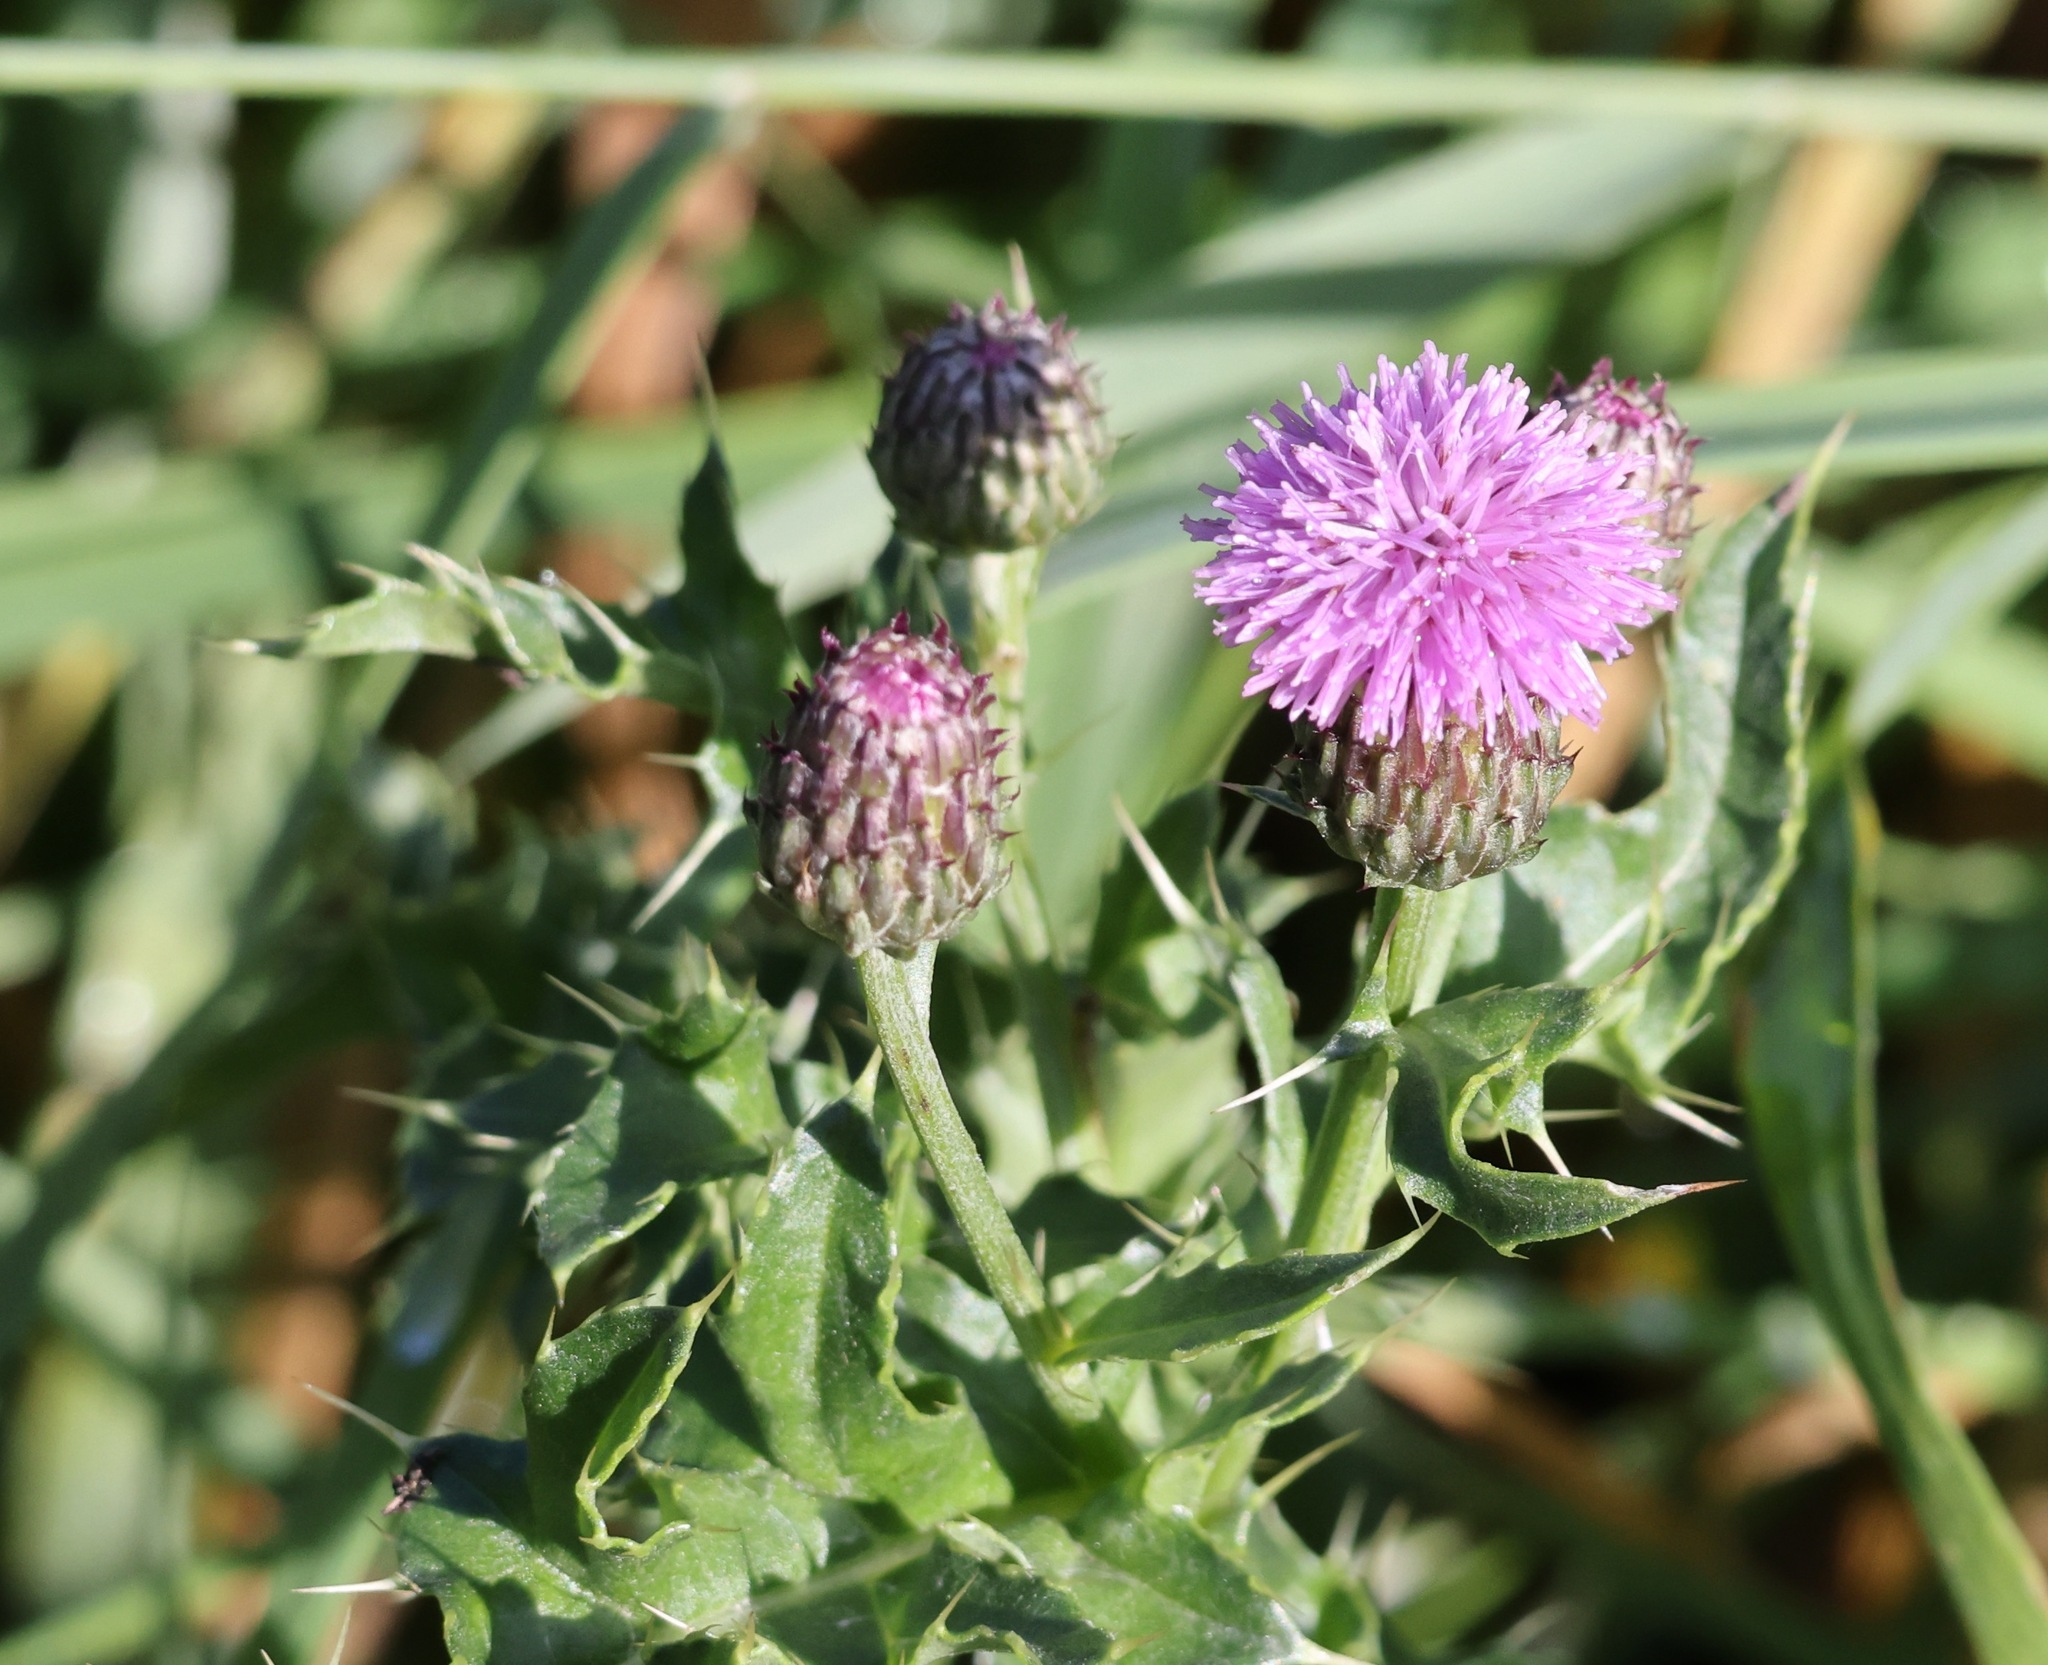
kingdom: Plantae
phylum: Tracheophyta
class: Magnoliopsida
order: Asterales
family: Asteraceae
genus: Cirsium
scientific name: Cirsium arvense
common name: Creeping thistle
